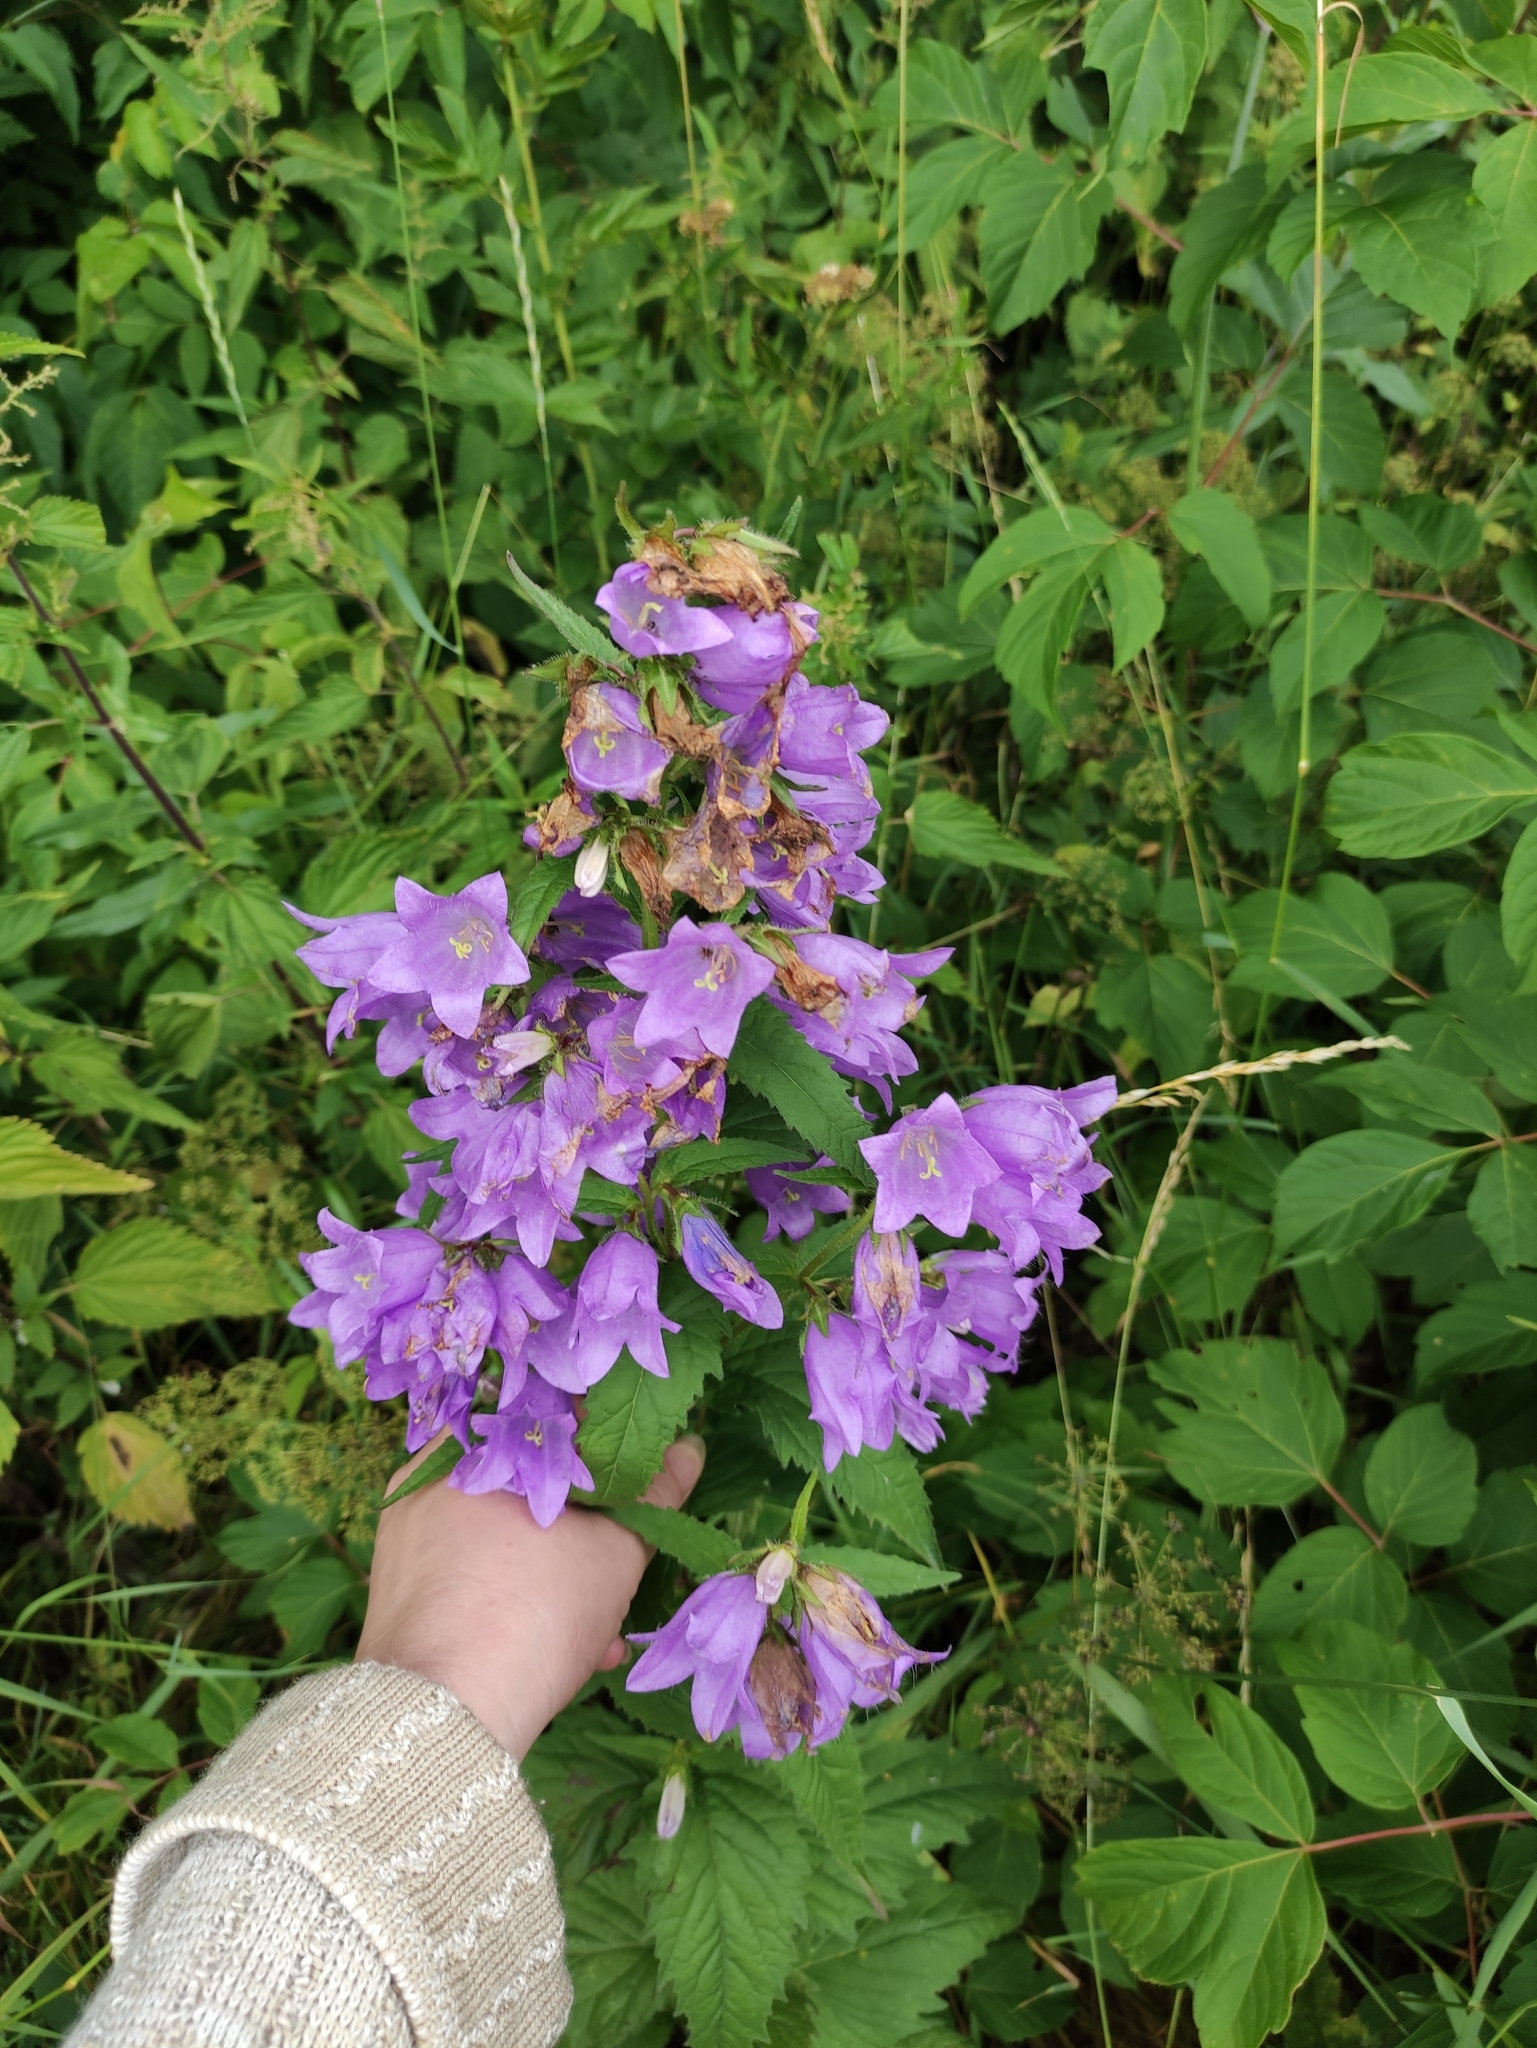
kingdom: Plantae
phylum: Tracheophyta
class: Magnoliopsida
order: Asterales
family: Campanulaceae
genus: Campanula
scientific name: Campanula trachelium
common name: Nettle-leaved bellflower
